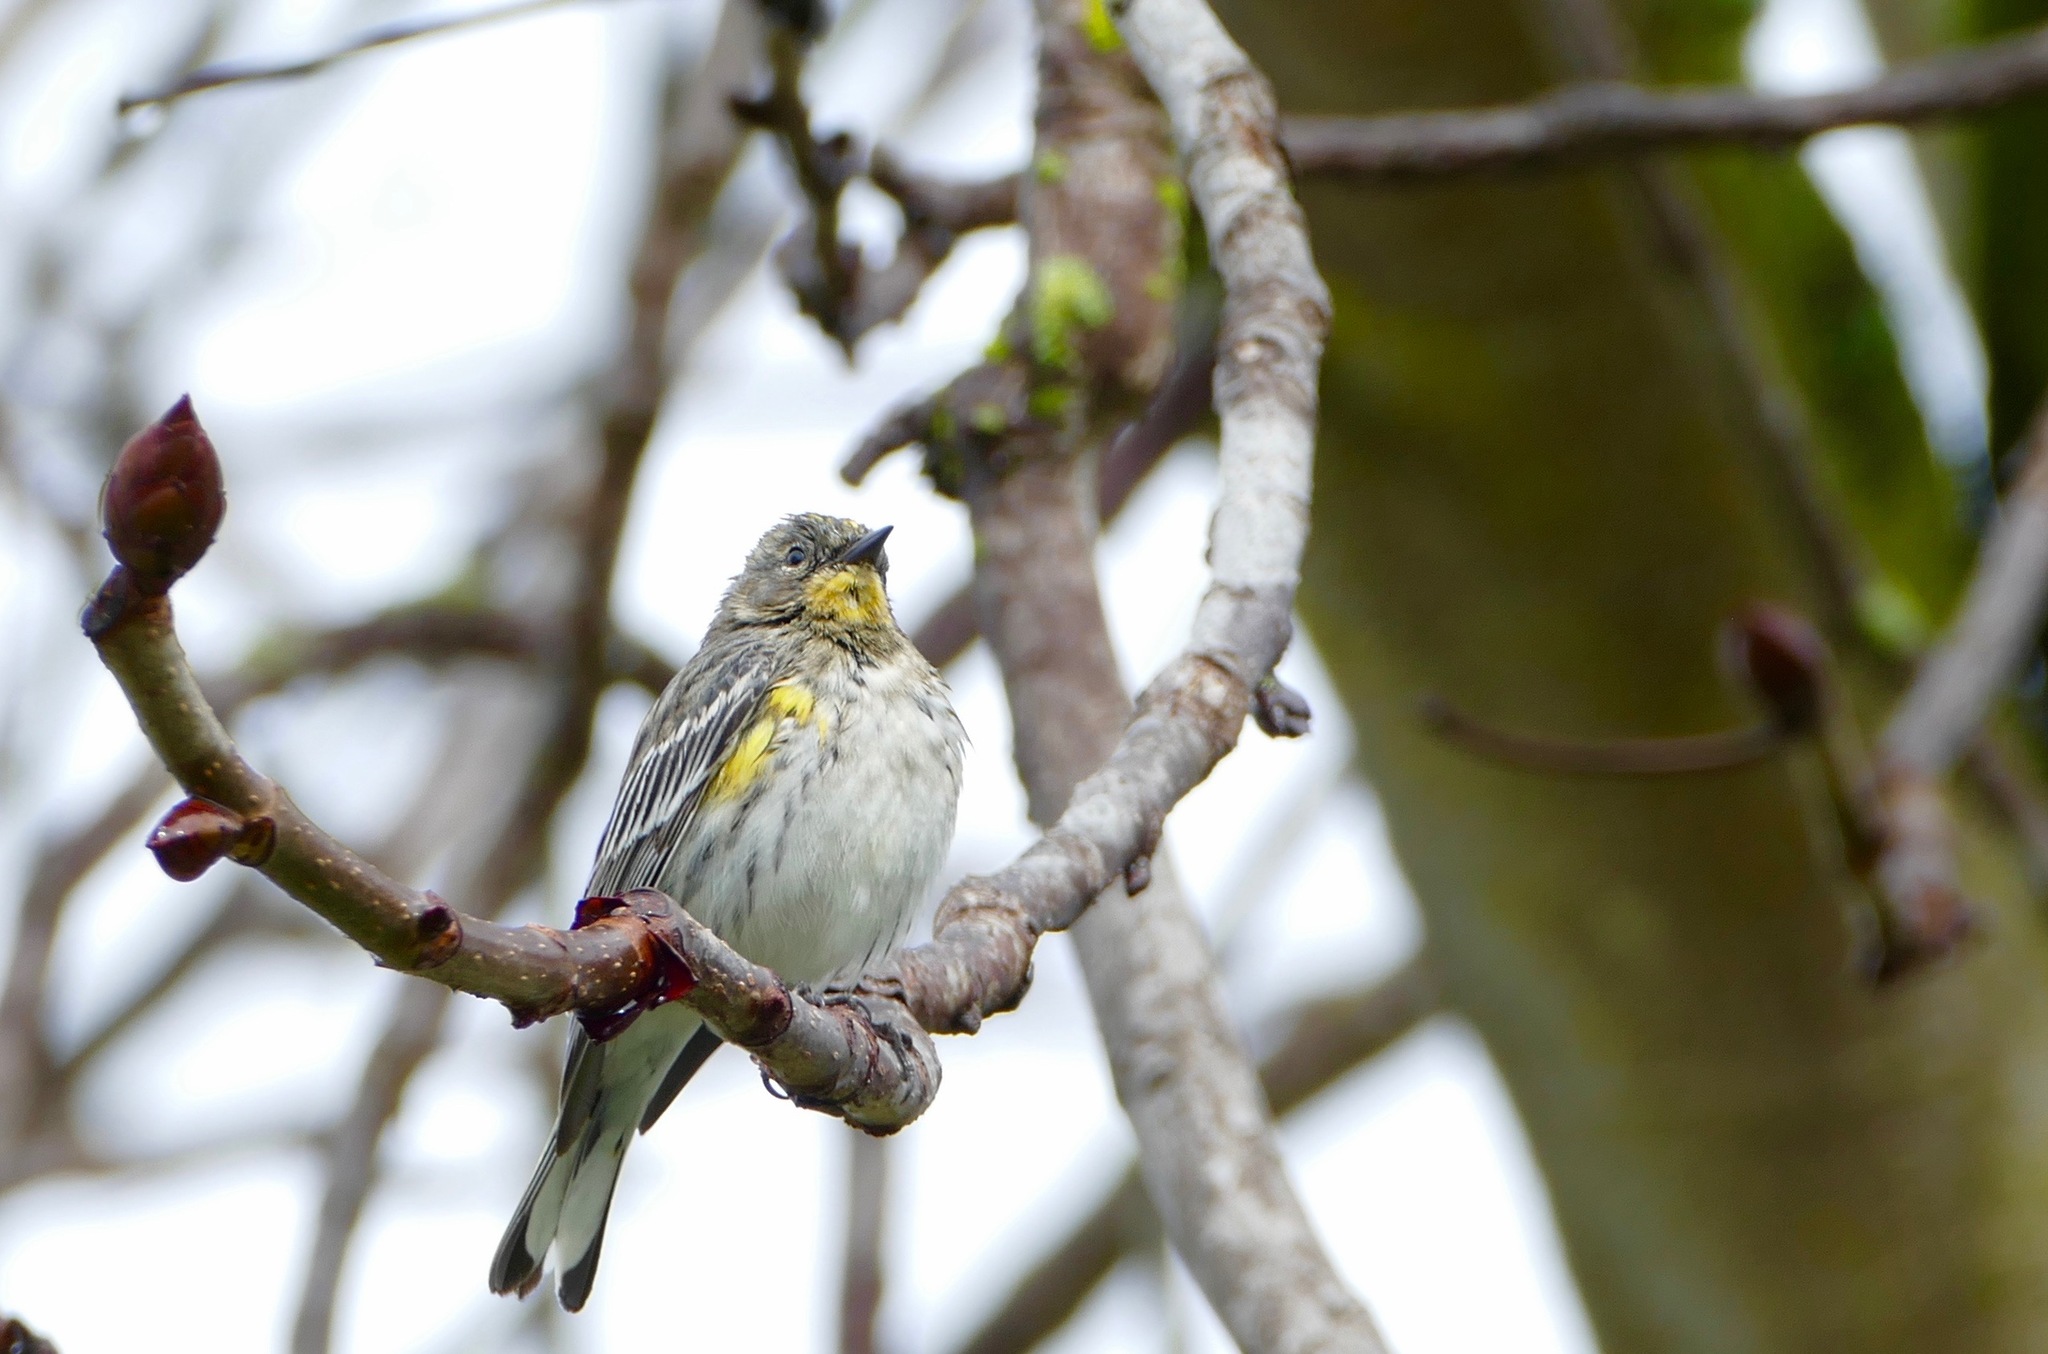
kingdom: Animalia
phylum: Chordata
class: Aves
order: Passeriformes
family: Parulidae
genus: Setophaga
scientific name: Setophaga coronata
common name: Myrtle warbler
